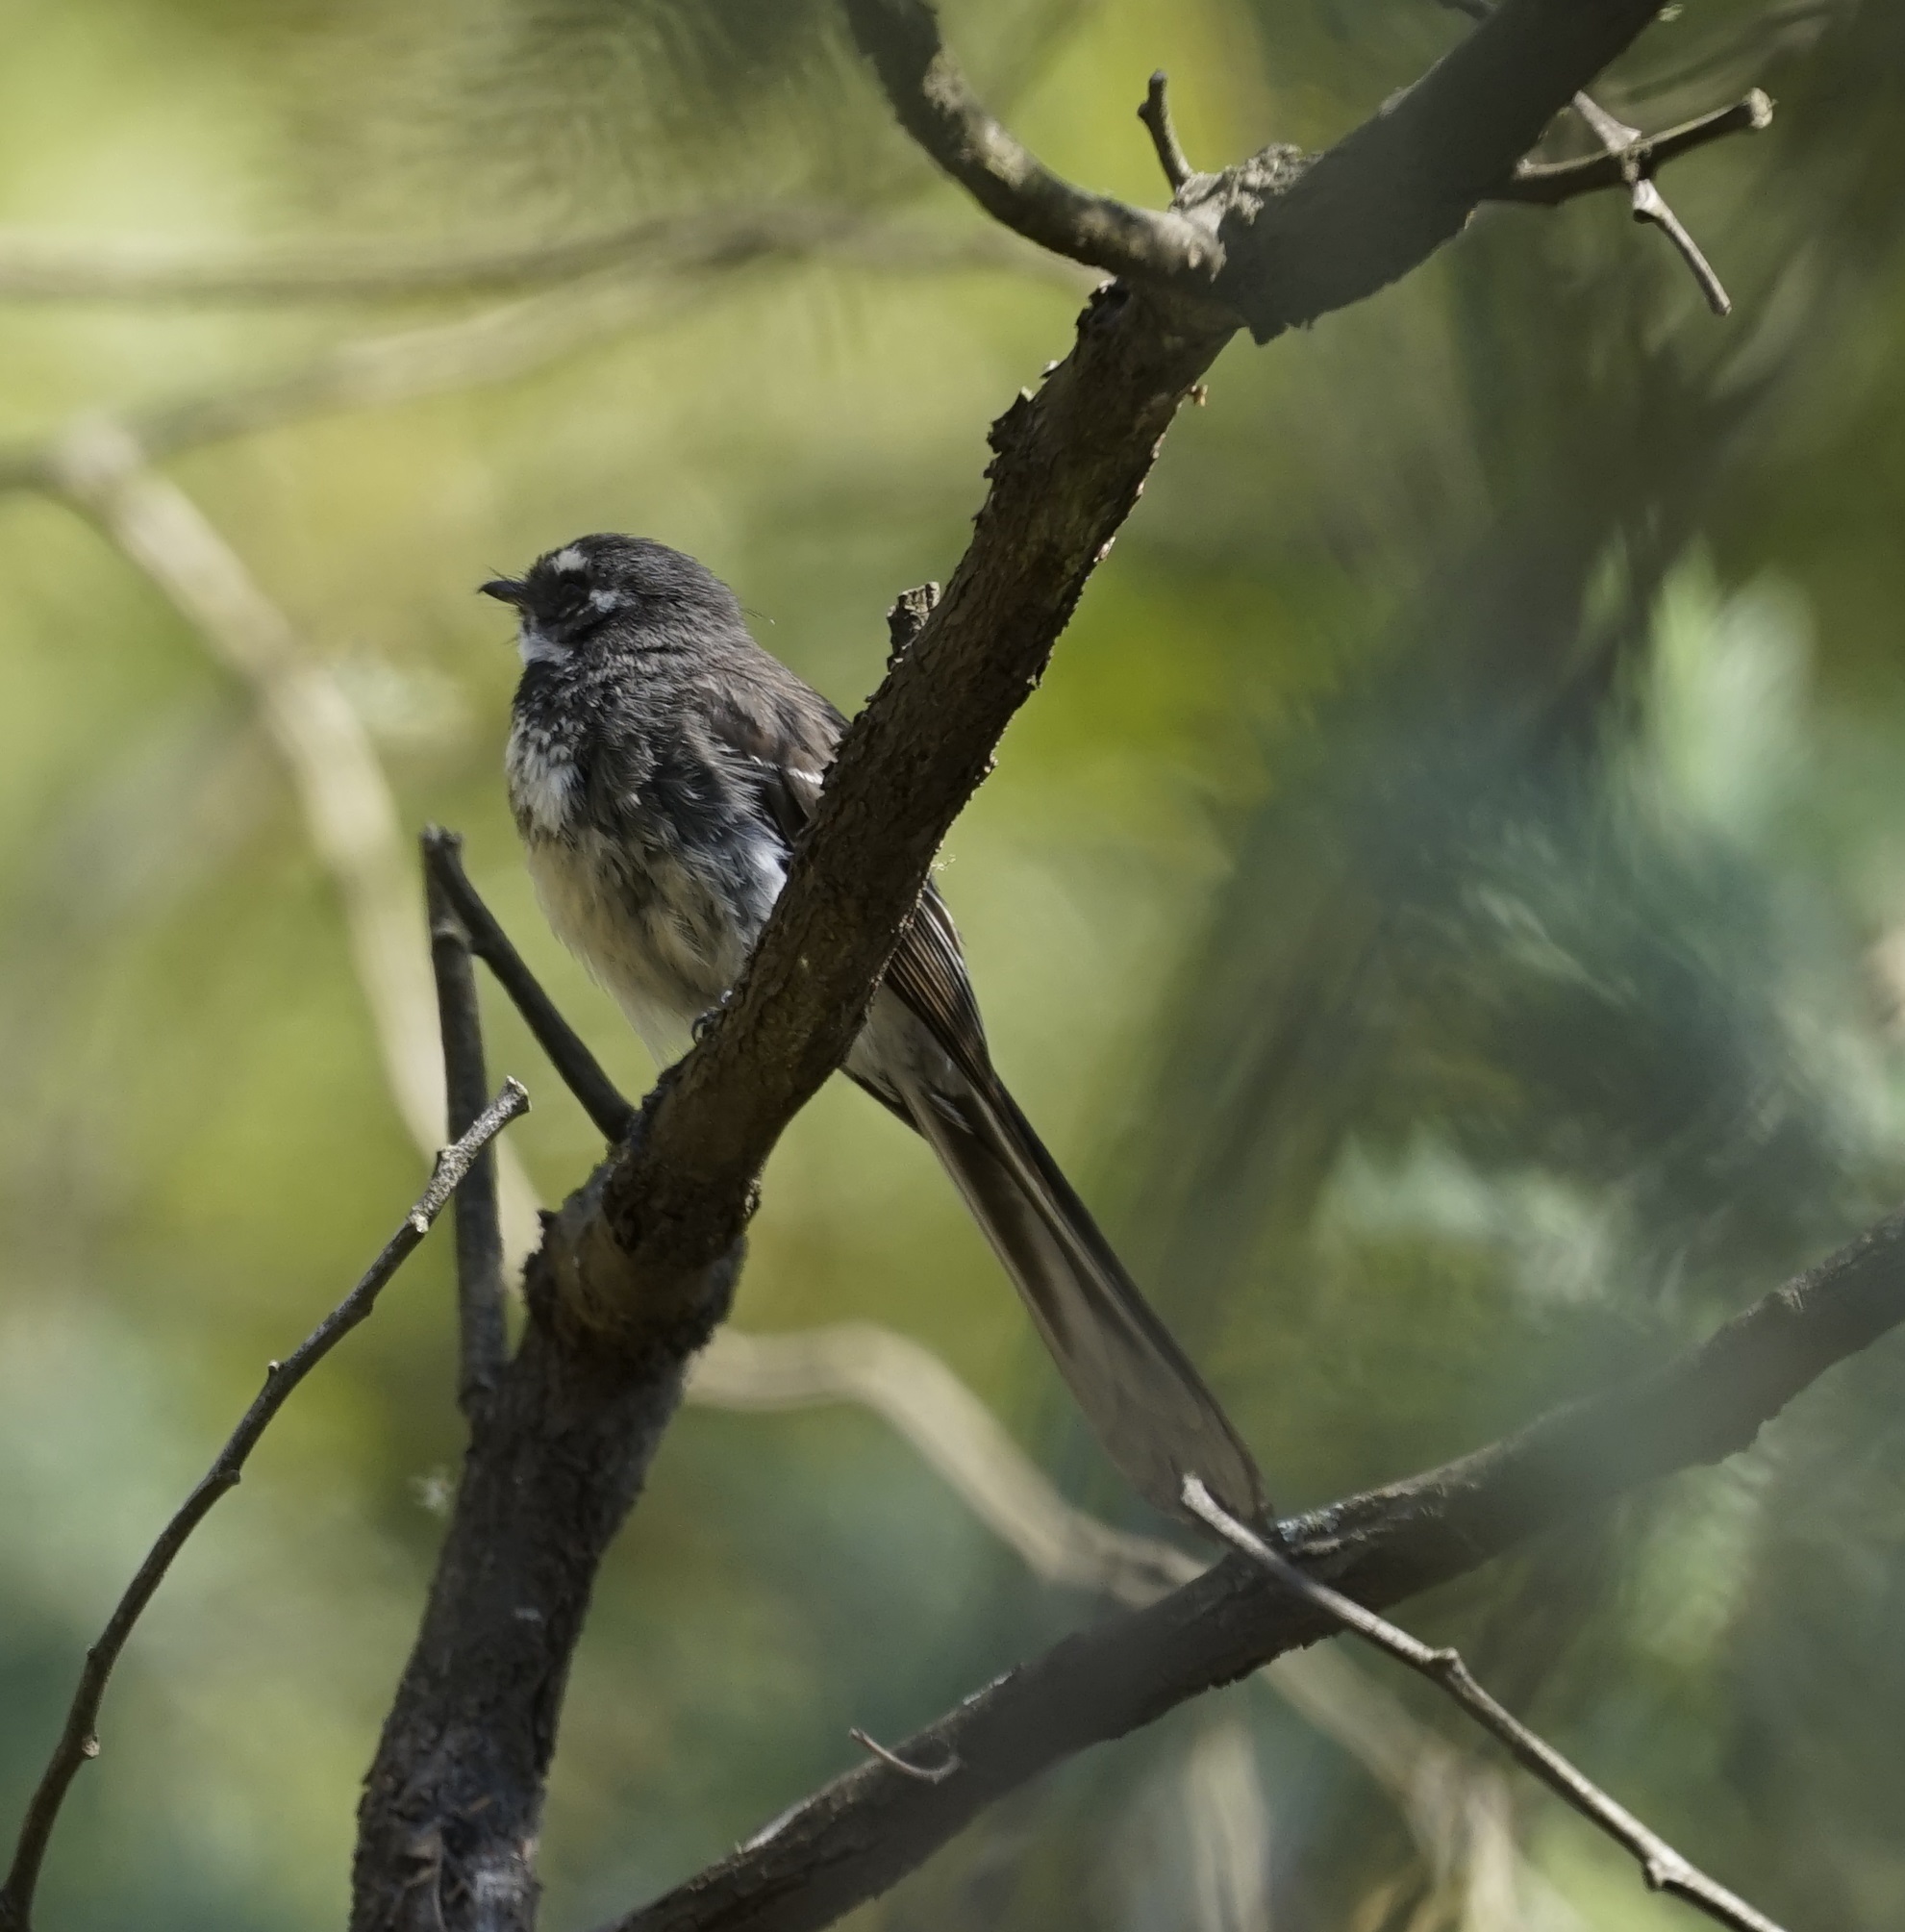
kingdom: Animalia
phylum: Chordata
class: Aves
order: Passeriformes
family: Rhipiduridae
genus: Rhipidura
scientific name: Rhipidura albiscapa
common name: Grey fantail
